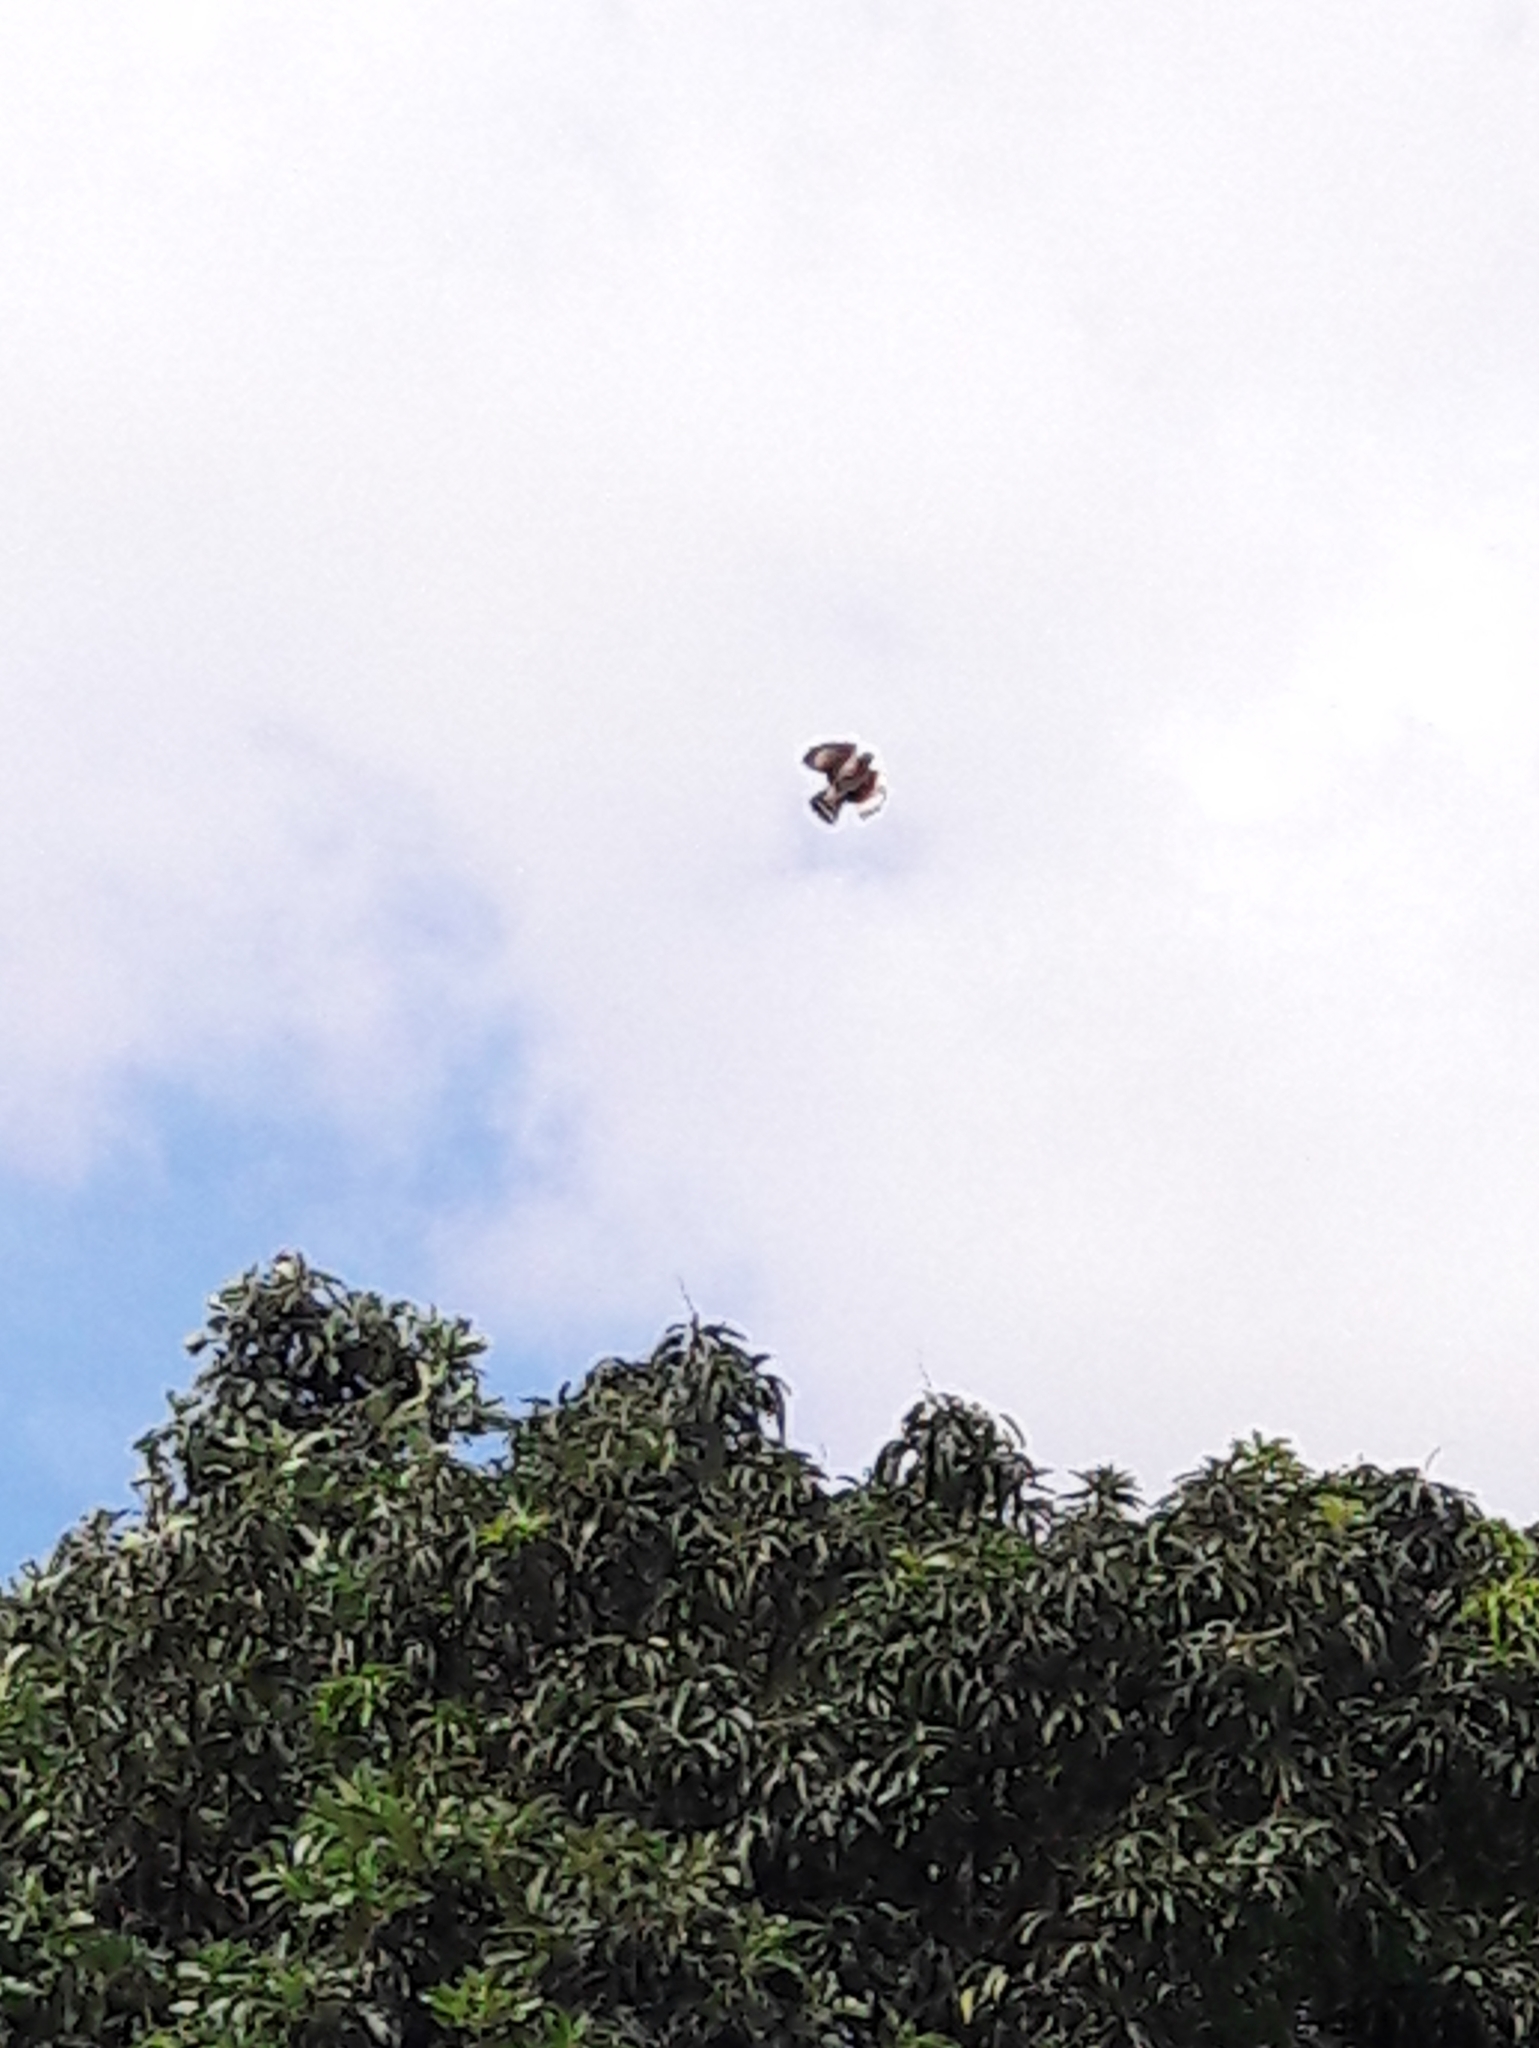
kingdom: Animalia
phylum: Chordata
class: Aves
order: Accipitriformes
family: Accipitridae
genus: Rupornis
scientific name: Rupornis magnirostris
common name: Roadside hawk
